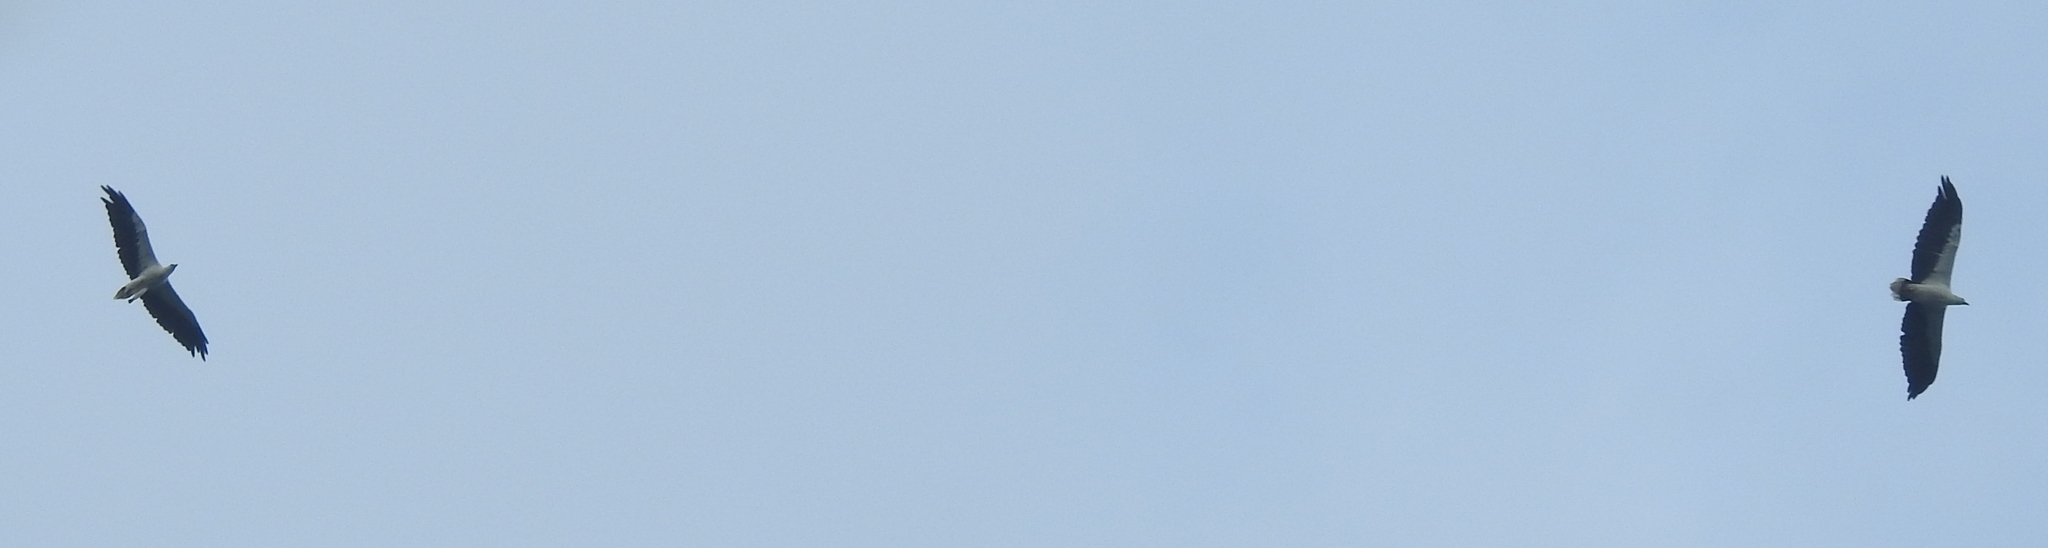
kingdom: Animalia
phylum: Chordata
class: Aves
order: Accipitriformes
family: Accipitridae
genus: Haliaeetus
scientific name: Haliaeetus leucogaster
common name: White-bellied sea eagle
